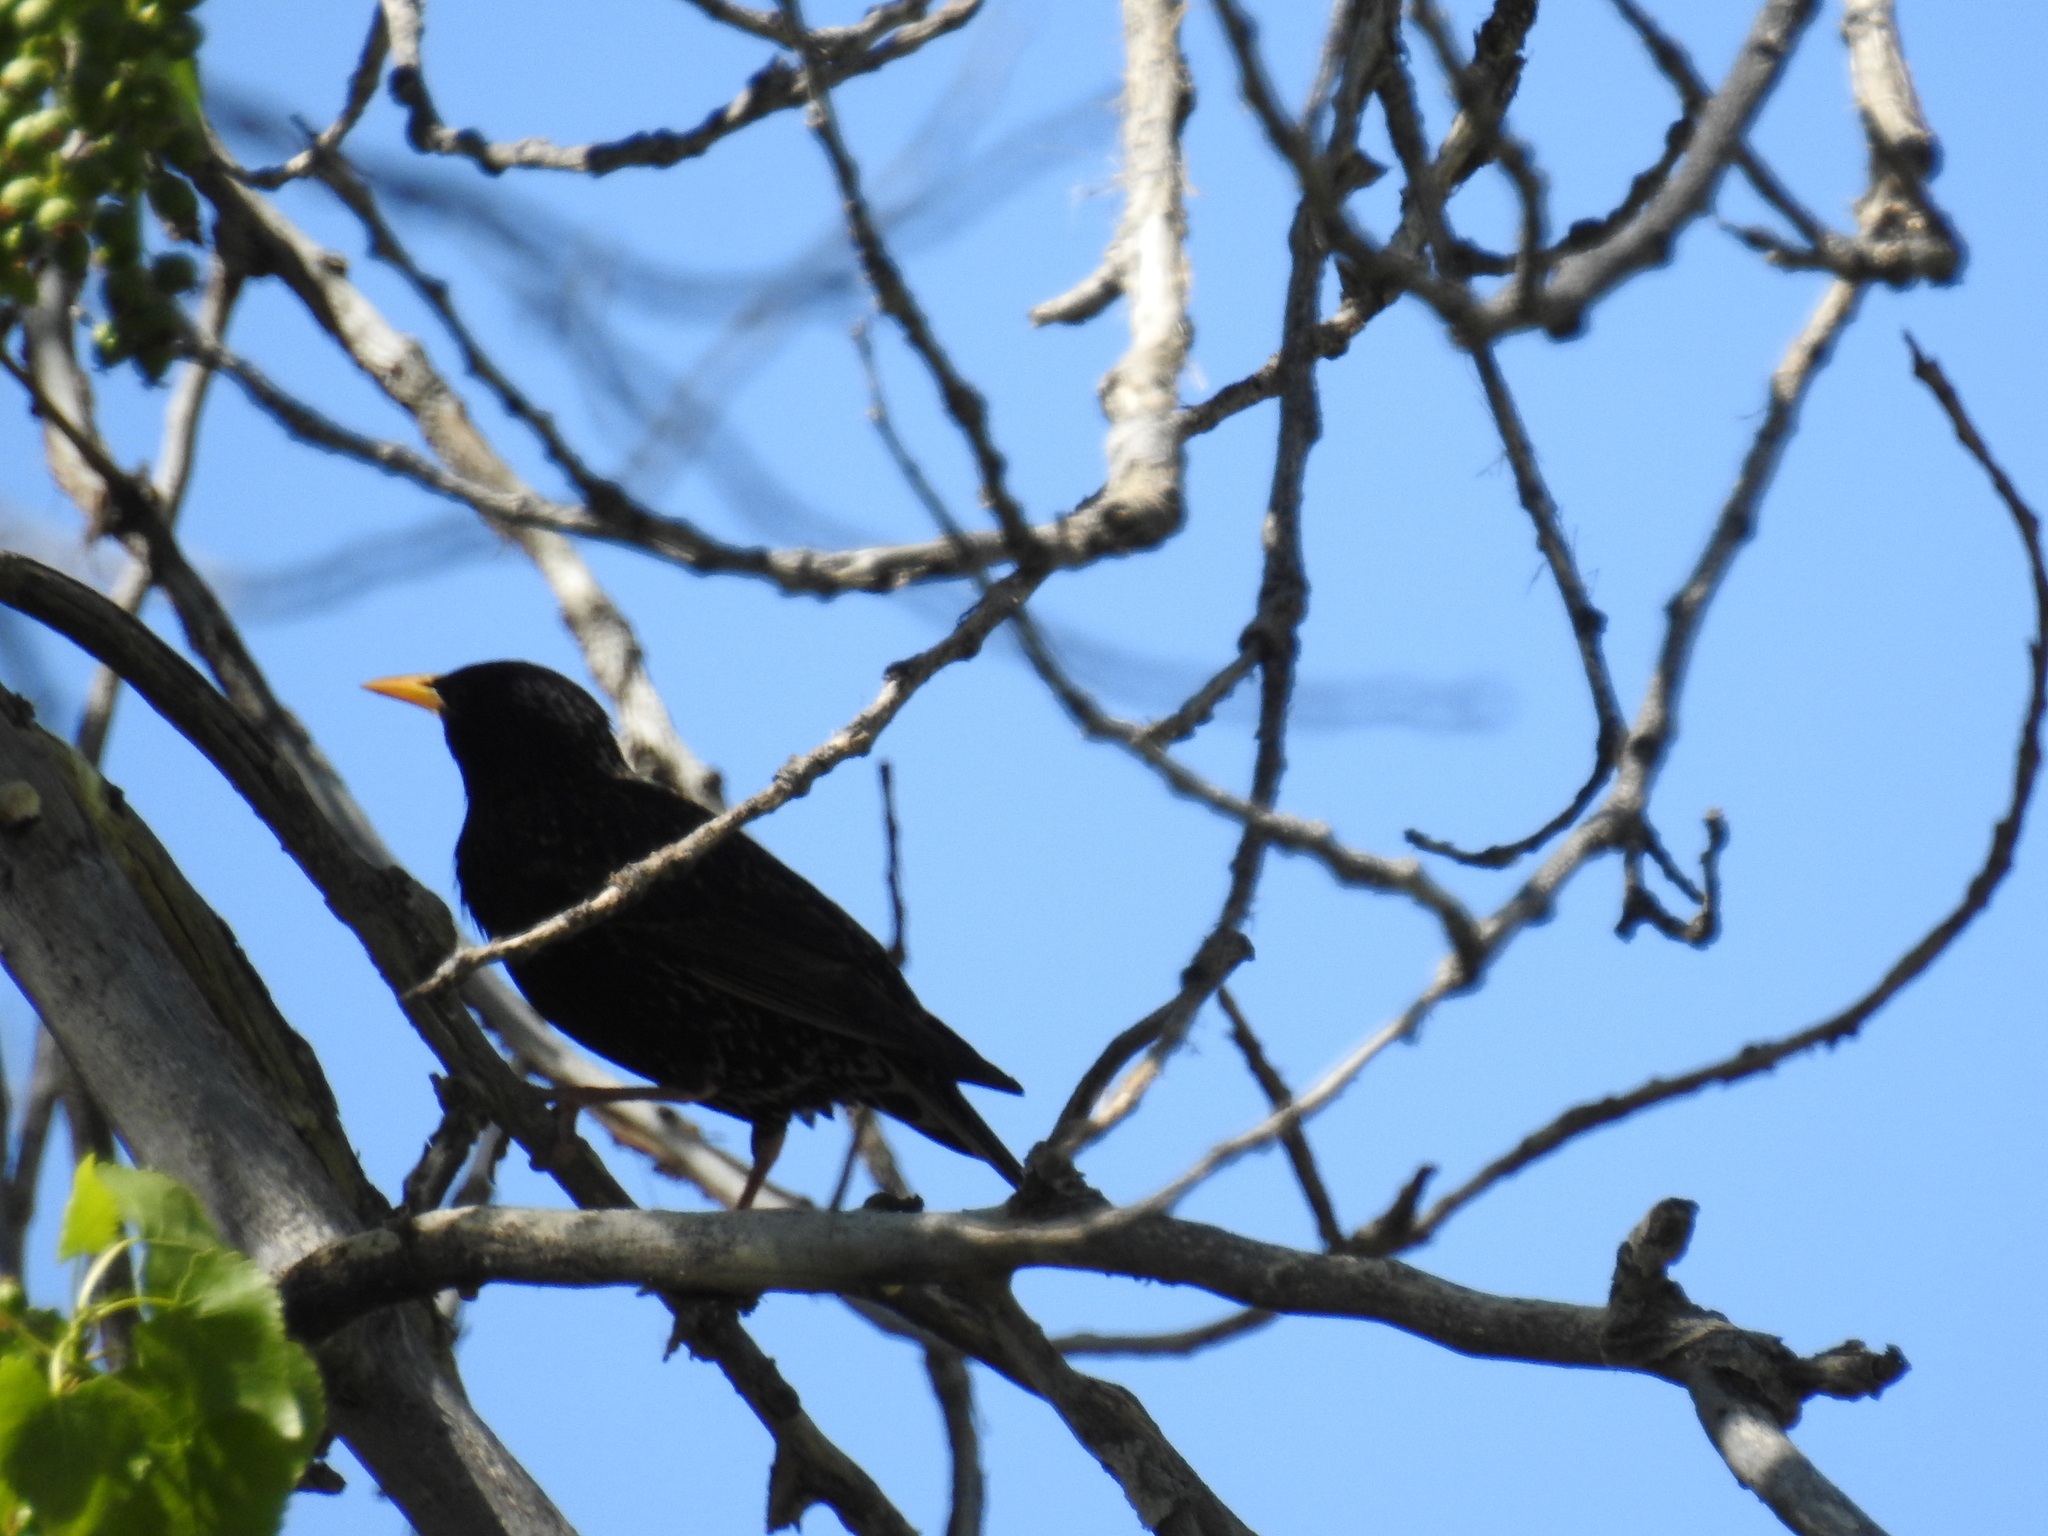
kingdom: Animalia
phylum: Chordata
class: Aves
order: Passeriformes
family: Sturnidae
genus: Sturnus
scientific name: Sturnus vulgaris
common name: Common starling
